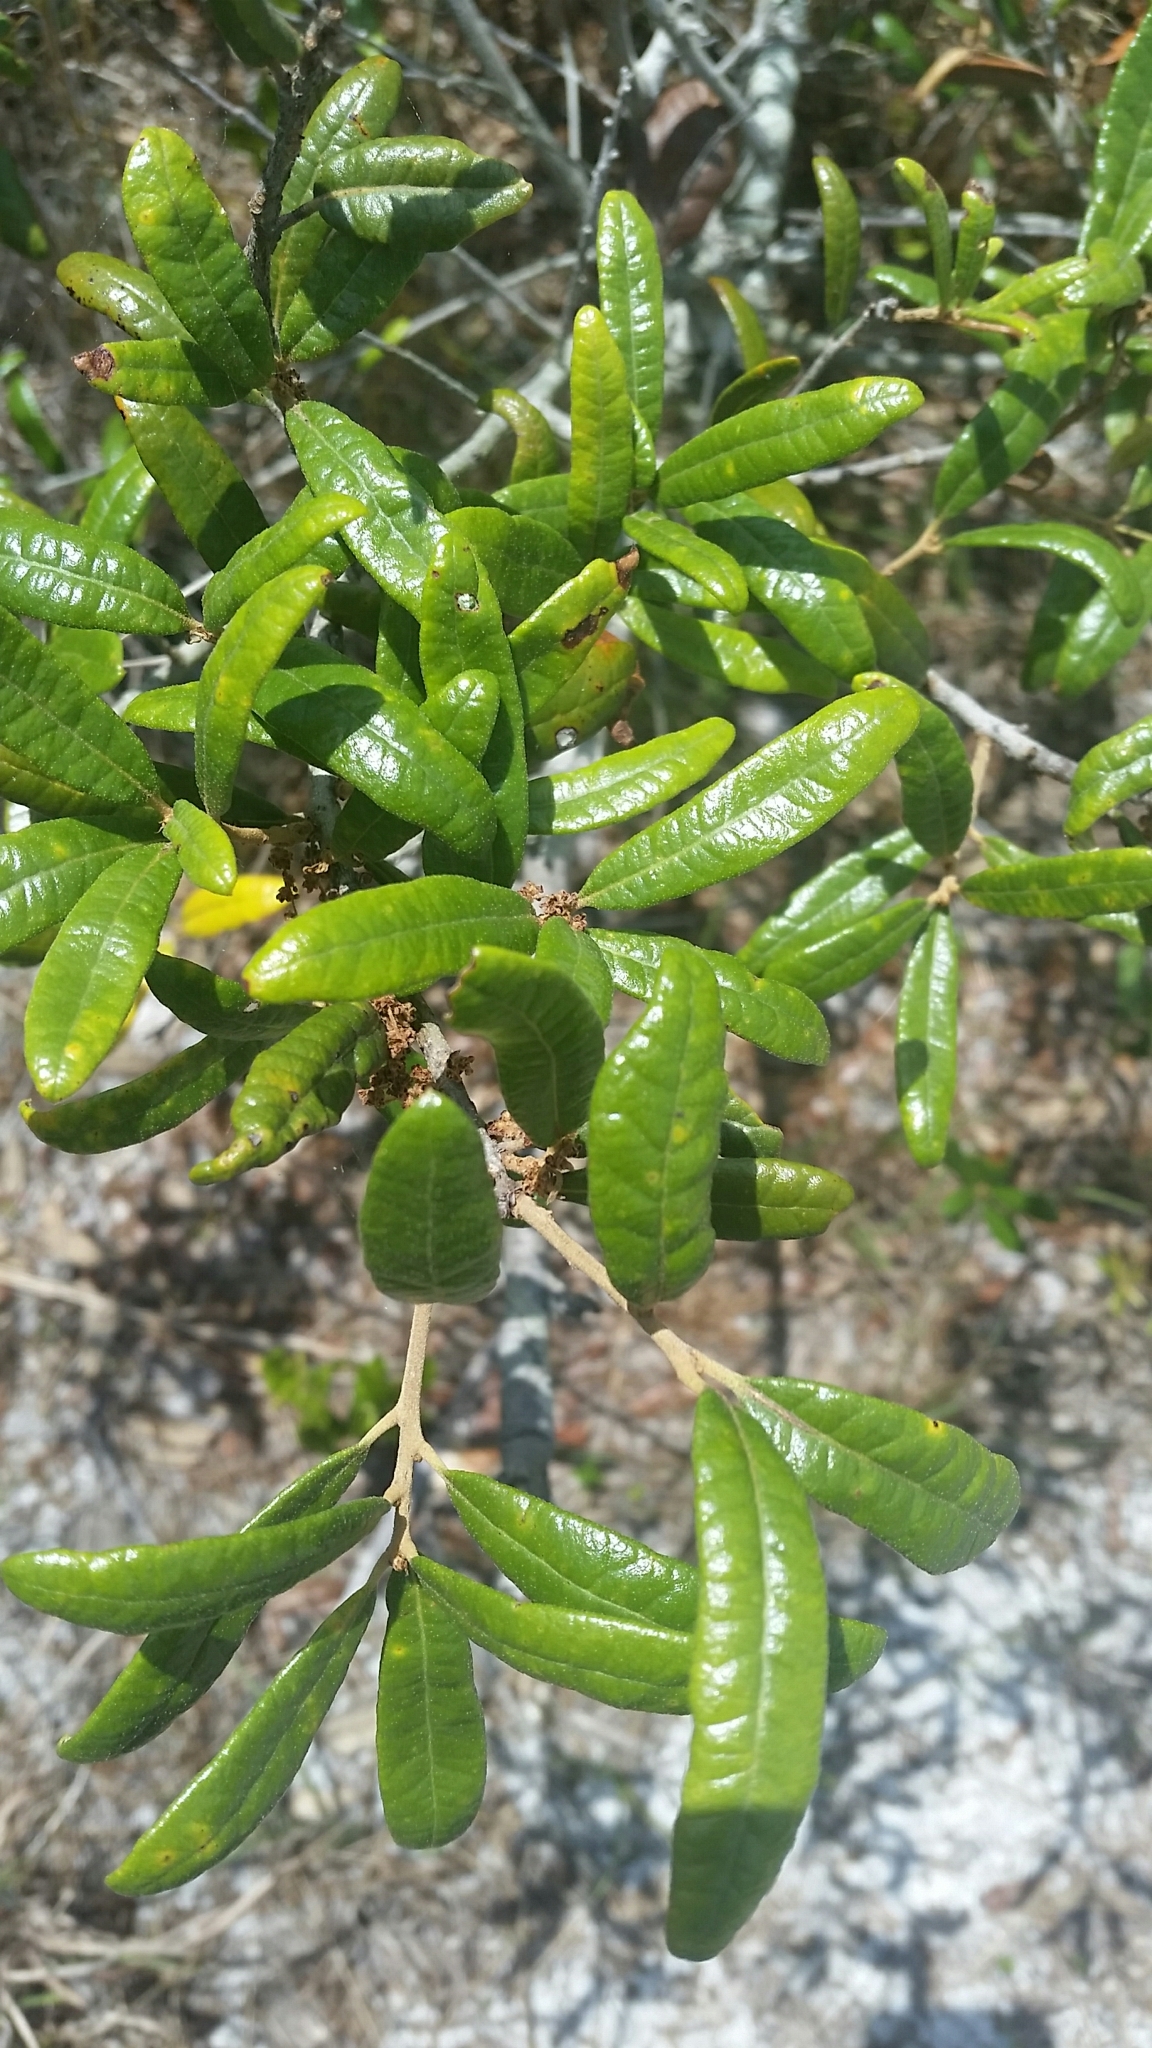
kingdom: Plantae
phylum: Tracheophyta
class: Magnoliopsida
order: Fagales
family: Fagaceae
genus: Quercus
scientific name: Quercus geminata
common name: Sand live oak
